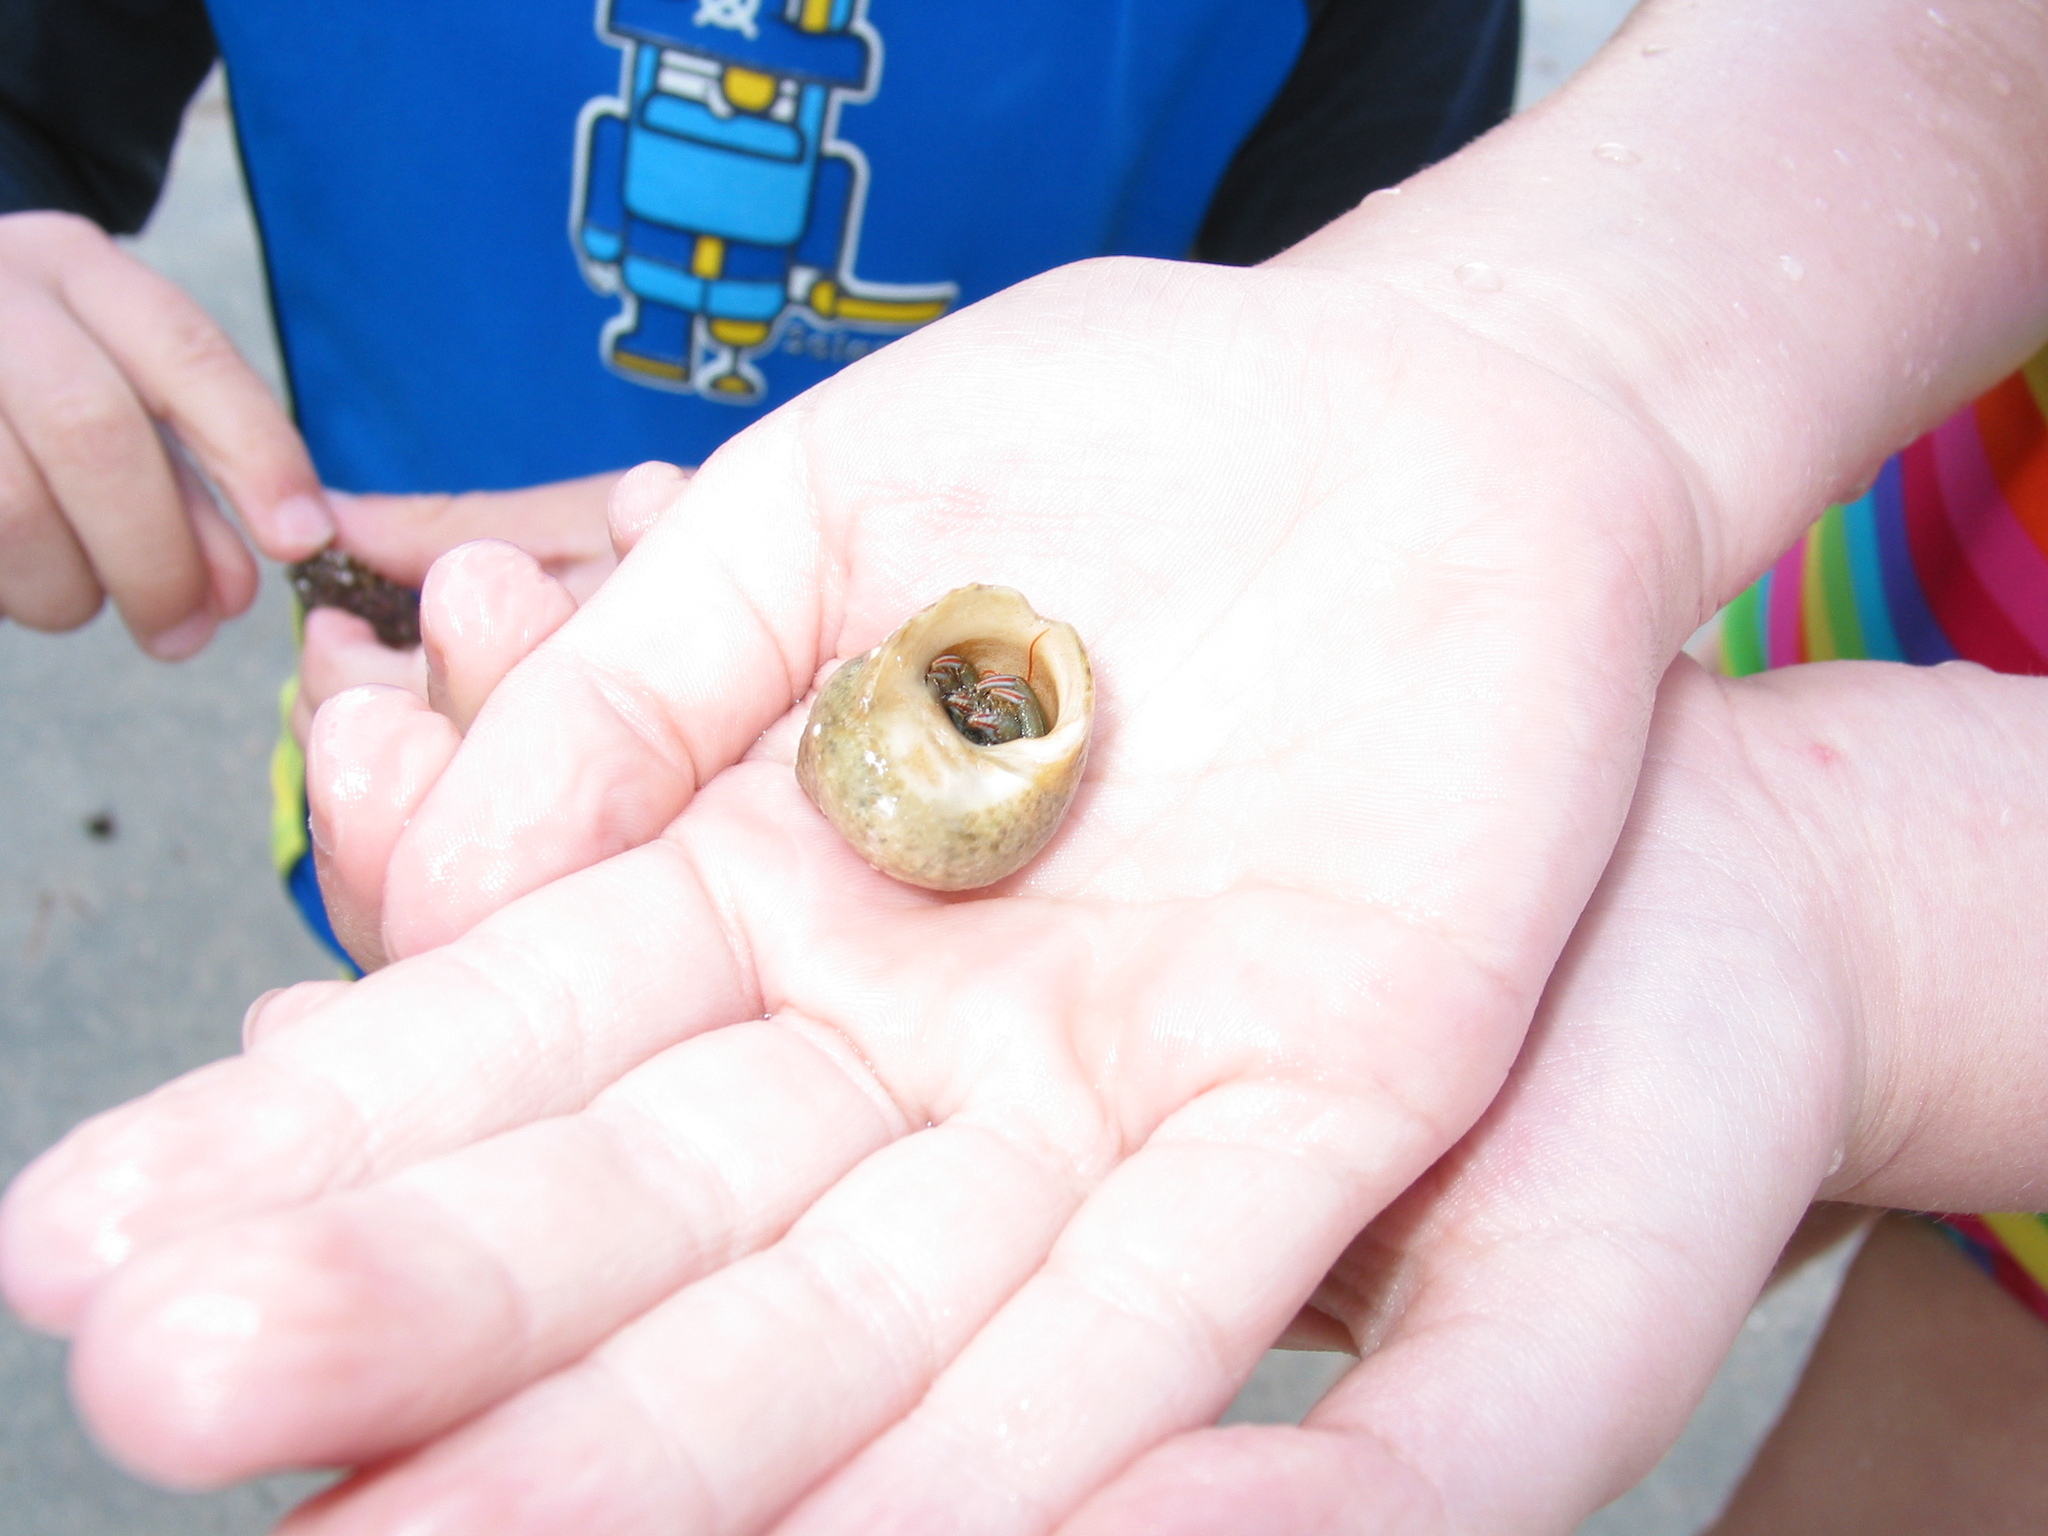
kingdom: Animalia
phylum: Arthropoda
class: Malacostraca
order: Decapoda
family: Diogenidae
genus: Clibanarius
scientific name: Clibanarius erythropus
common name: Hermit crab
